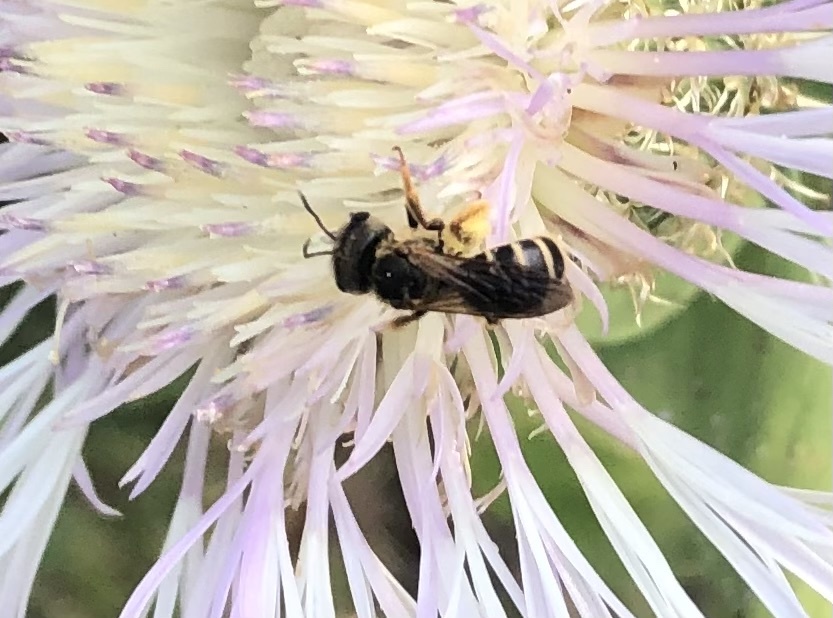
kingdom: Animalia
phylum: Arthropoda
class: Insecta
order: Hymenoptera
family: Halictidae
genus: Halictus
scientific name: Halictus poeyi
